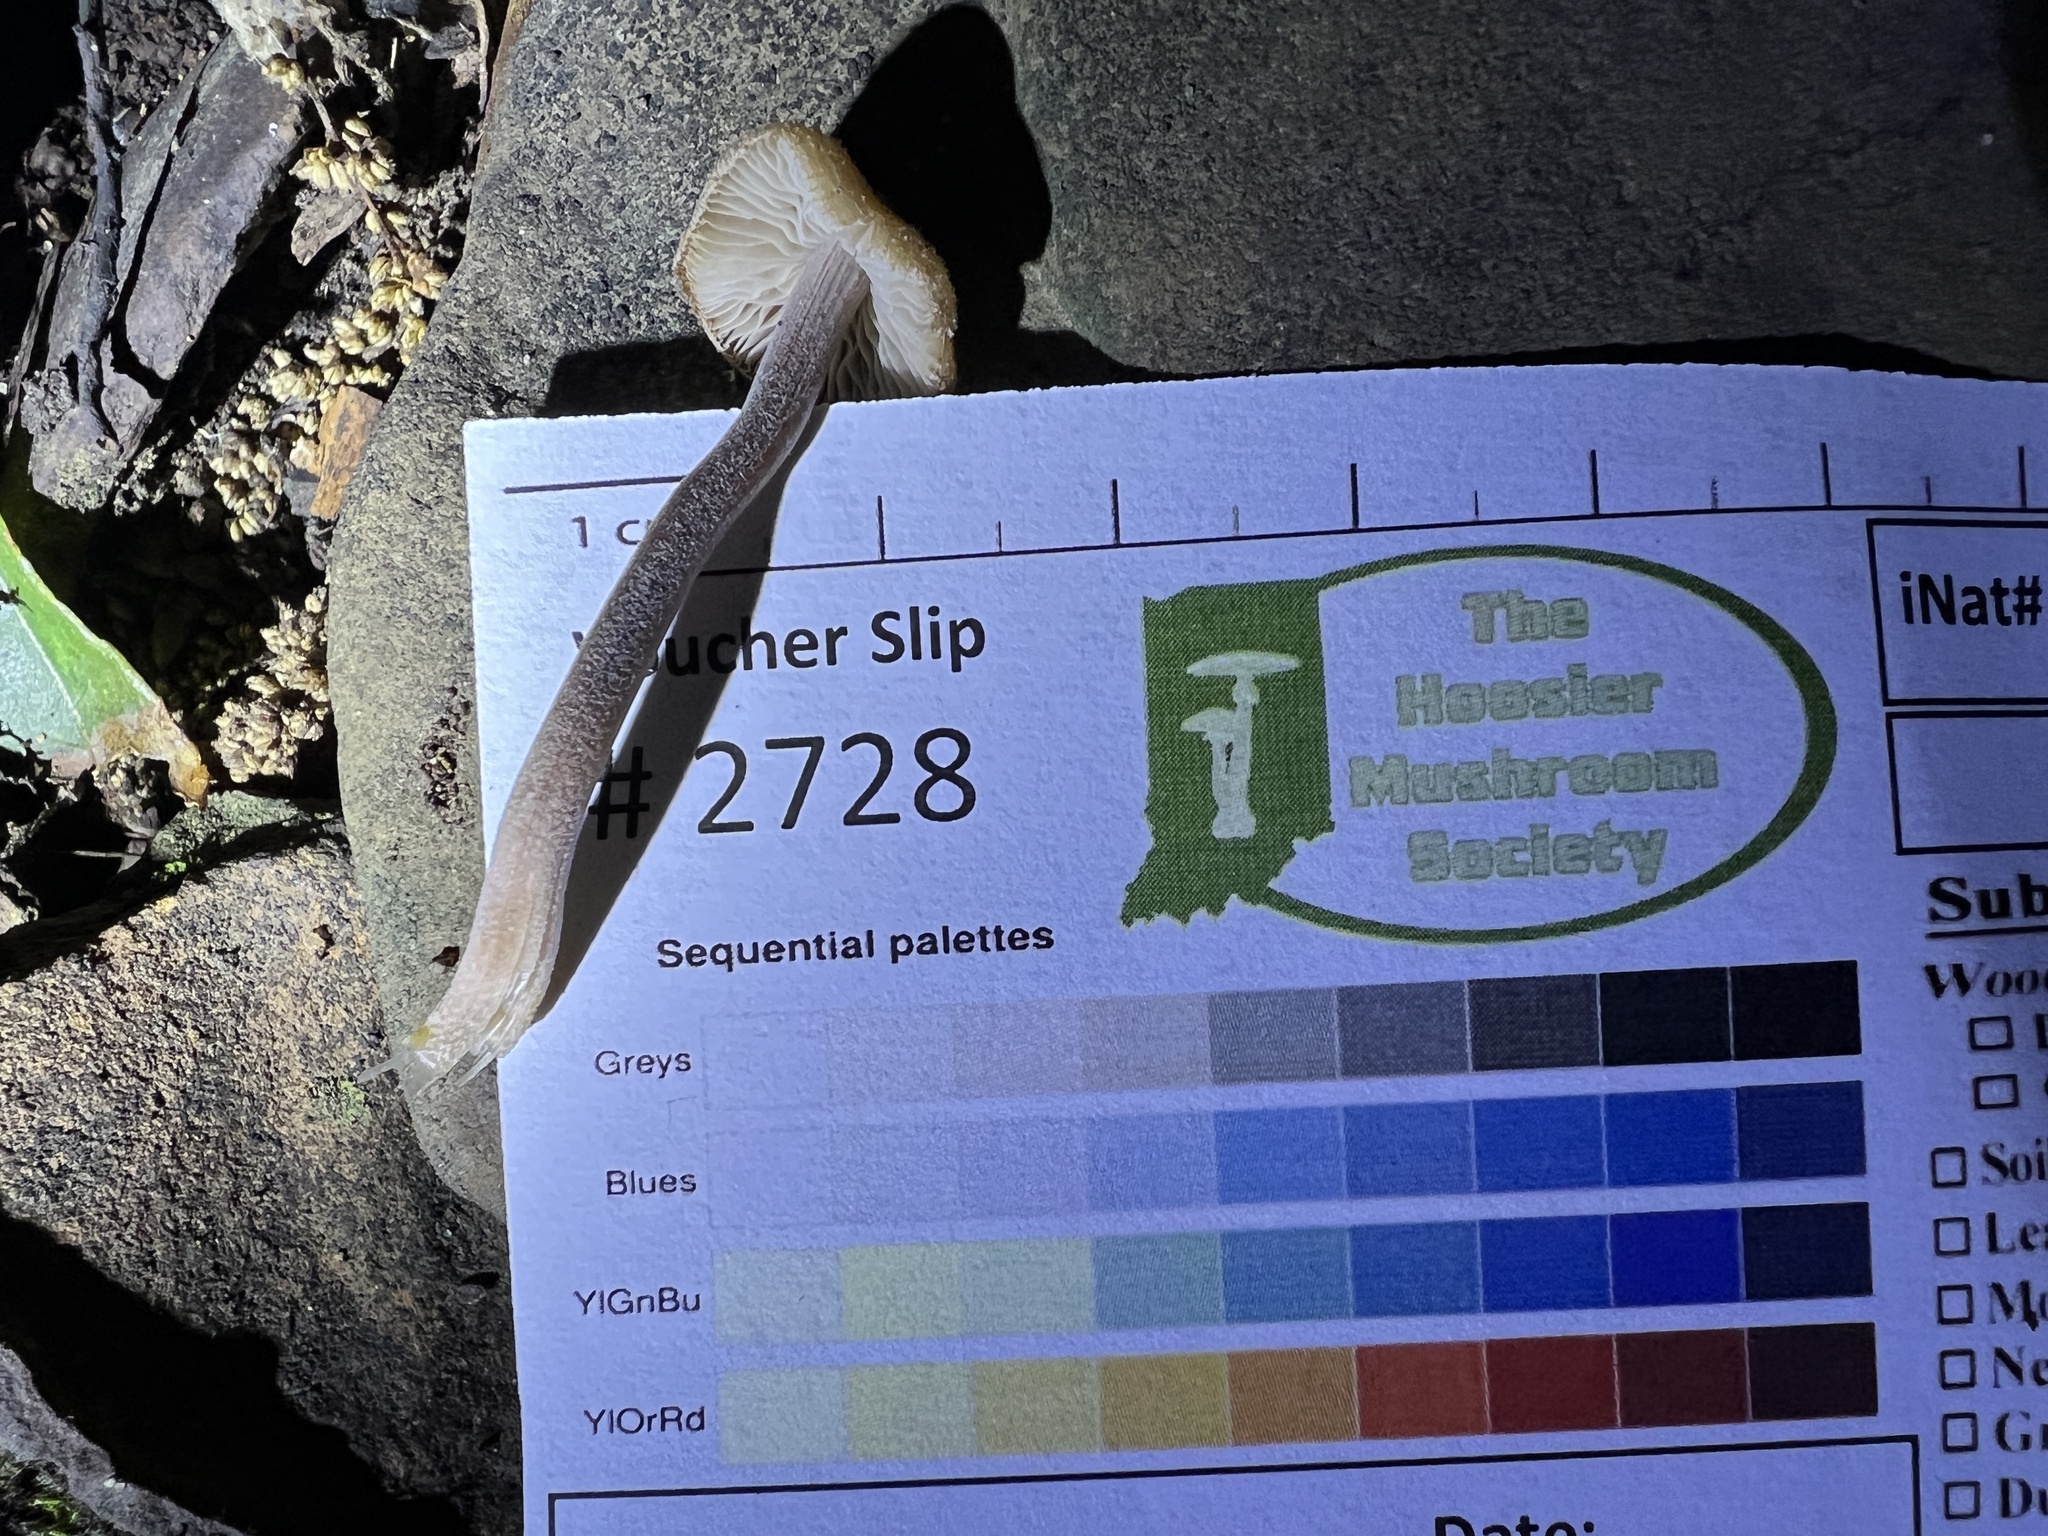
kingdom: Fungi
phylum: Basidiomycota
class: Agaricomycetes
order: Agaricales
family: Inocybaceae
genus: Inocybe
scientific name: Inocybe subfulva
